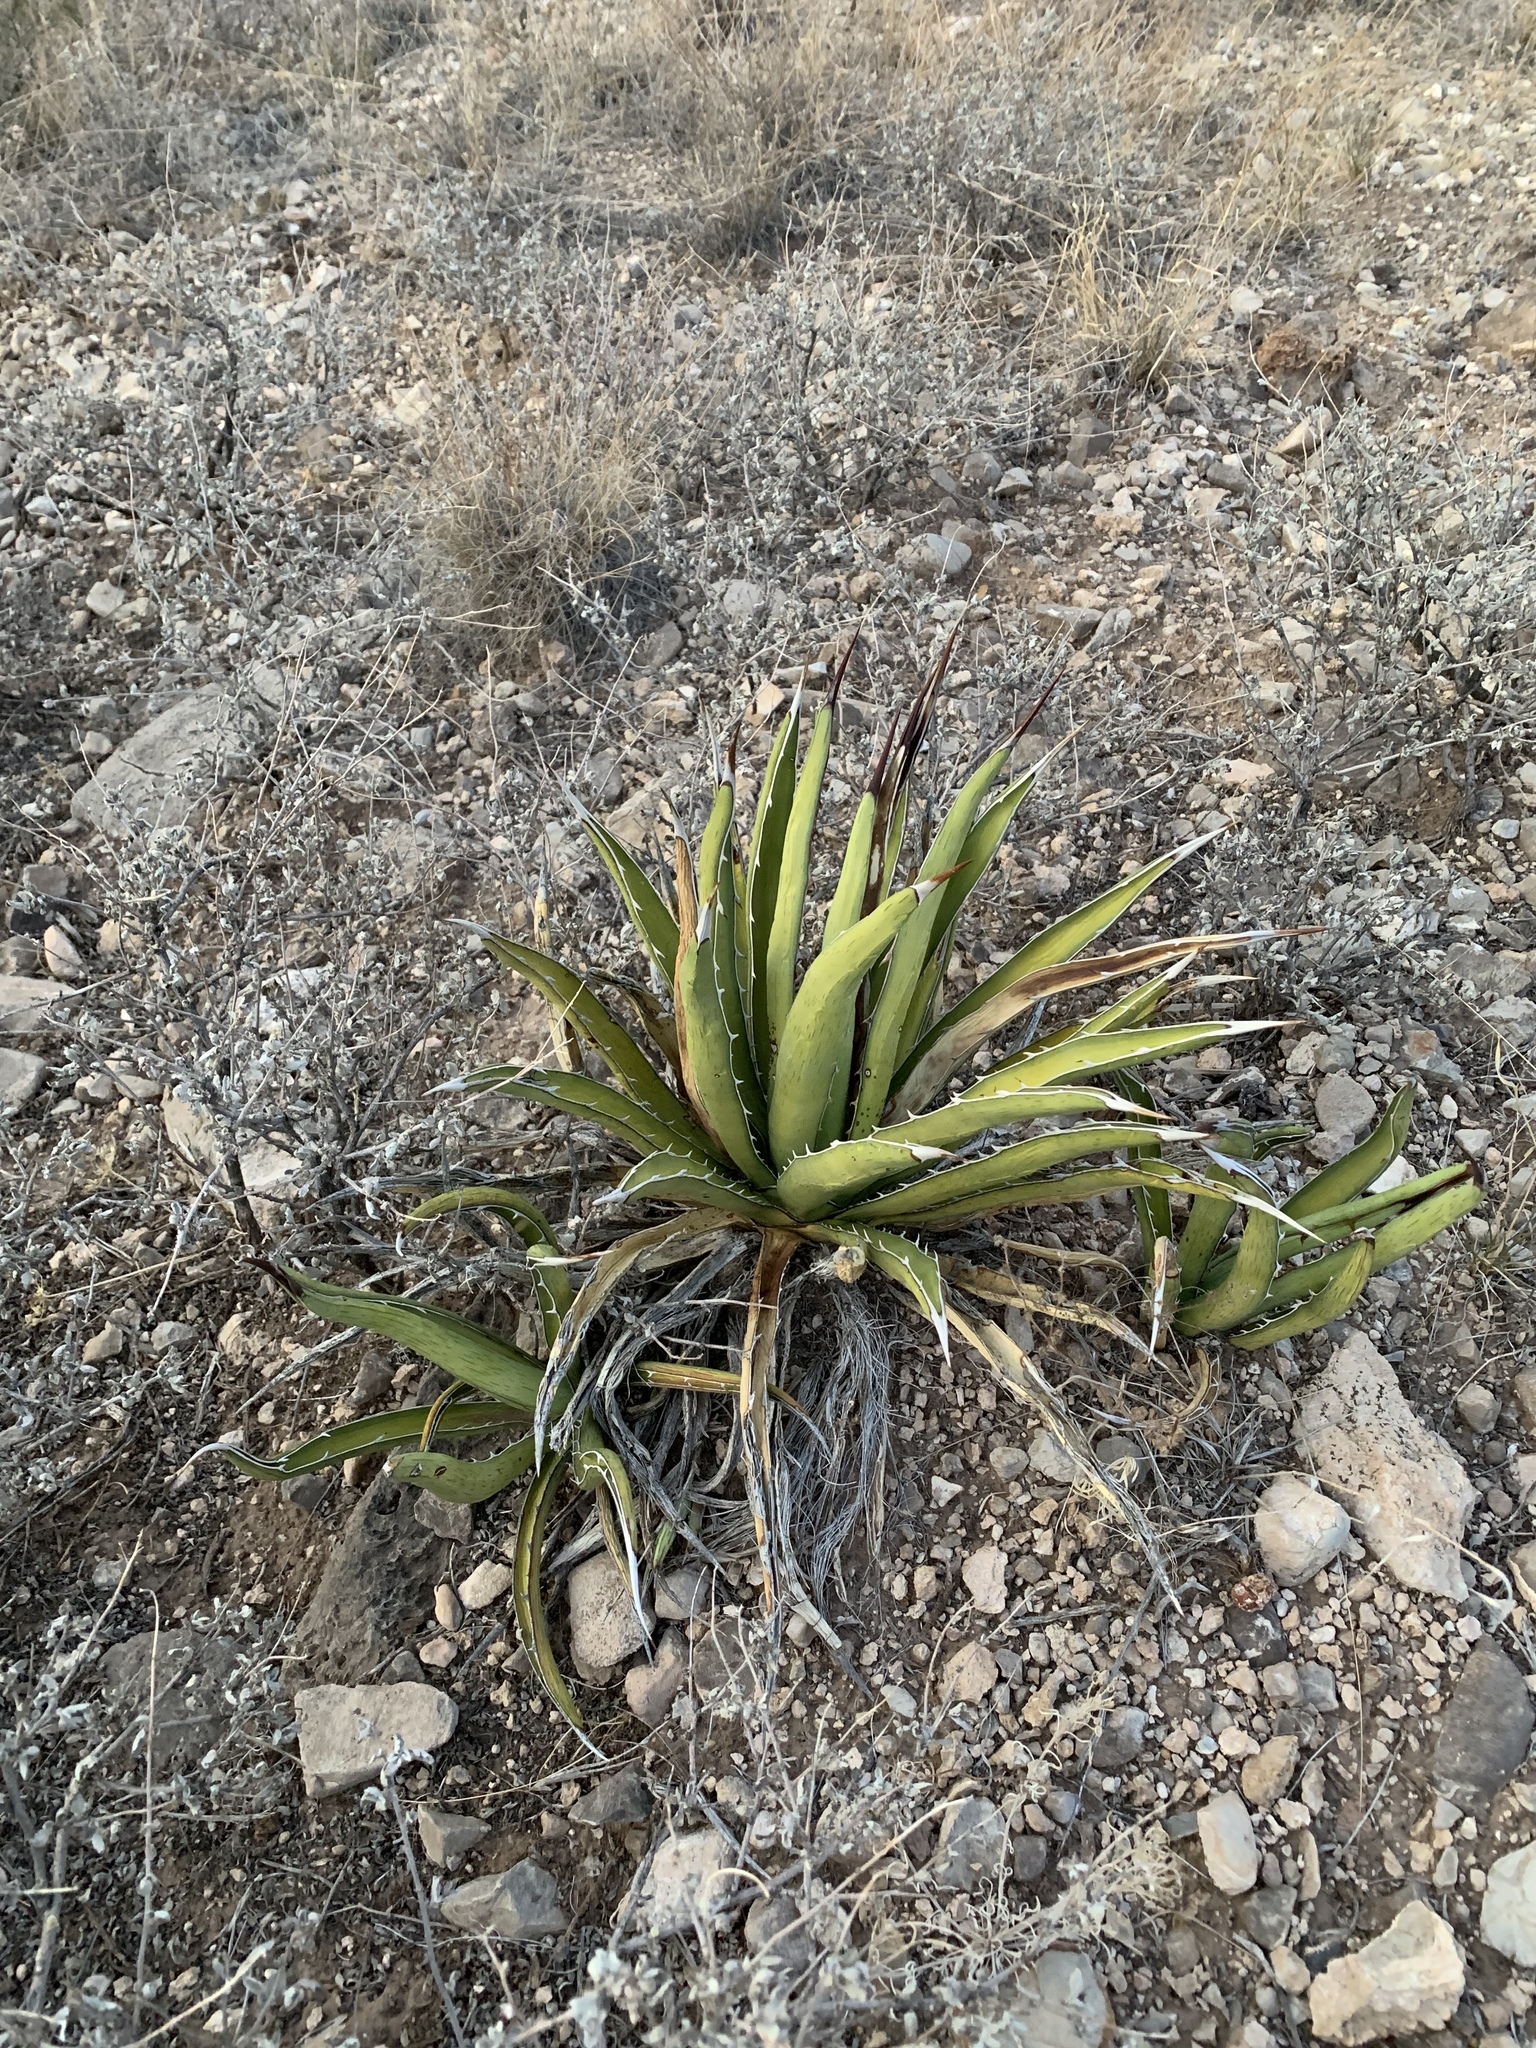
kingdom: Plantae
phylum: Tracheophyta
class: Liliopsida
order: Asparagales
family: Asparagaceae
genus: Agave
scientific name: Agave lechuguilla
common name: Lecheguilla agave
